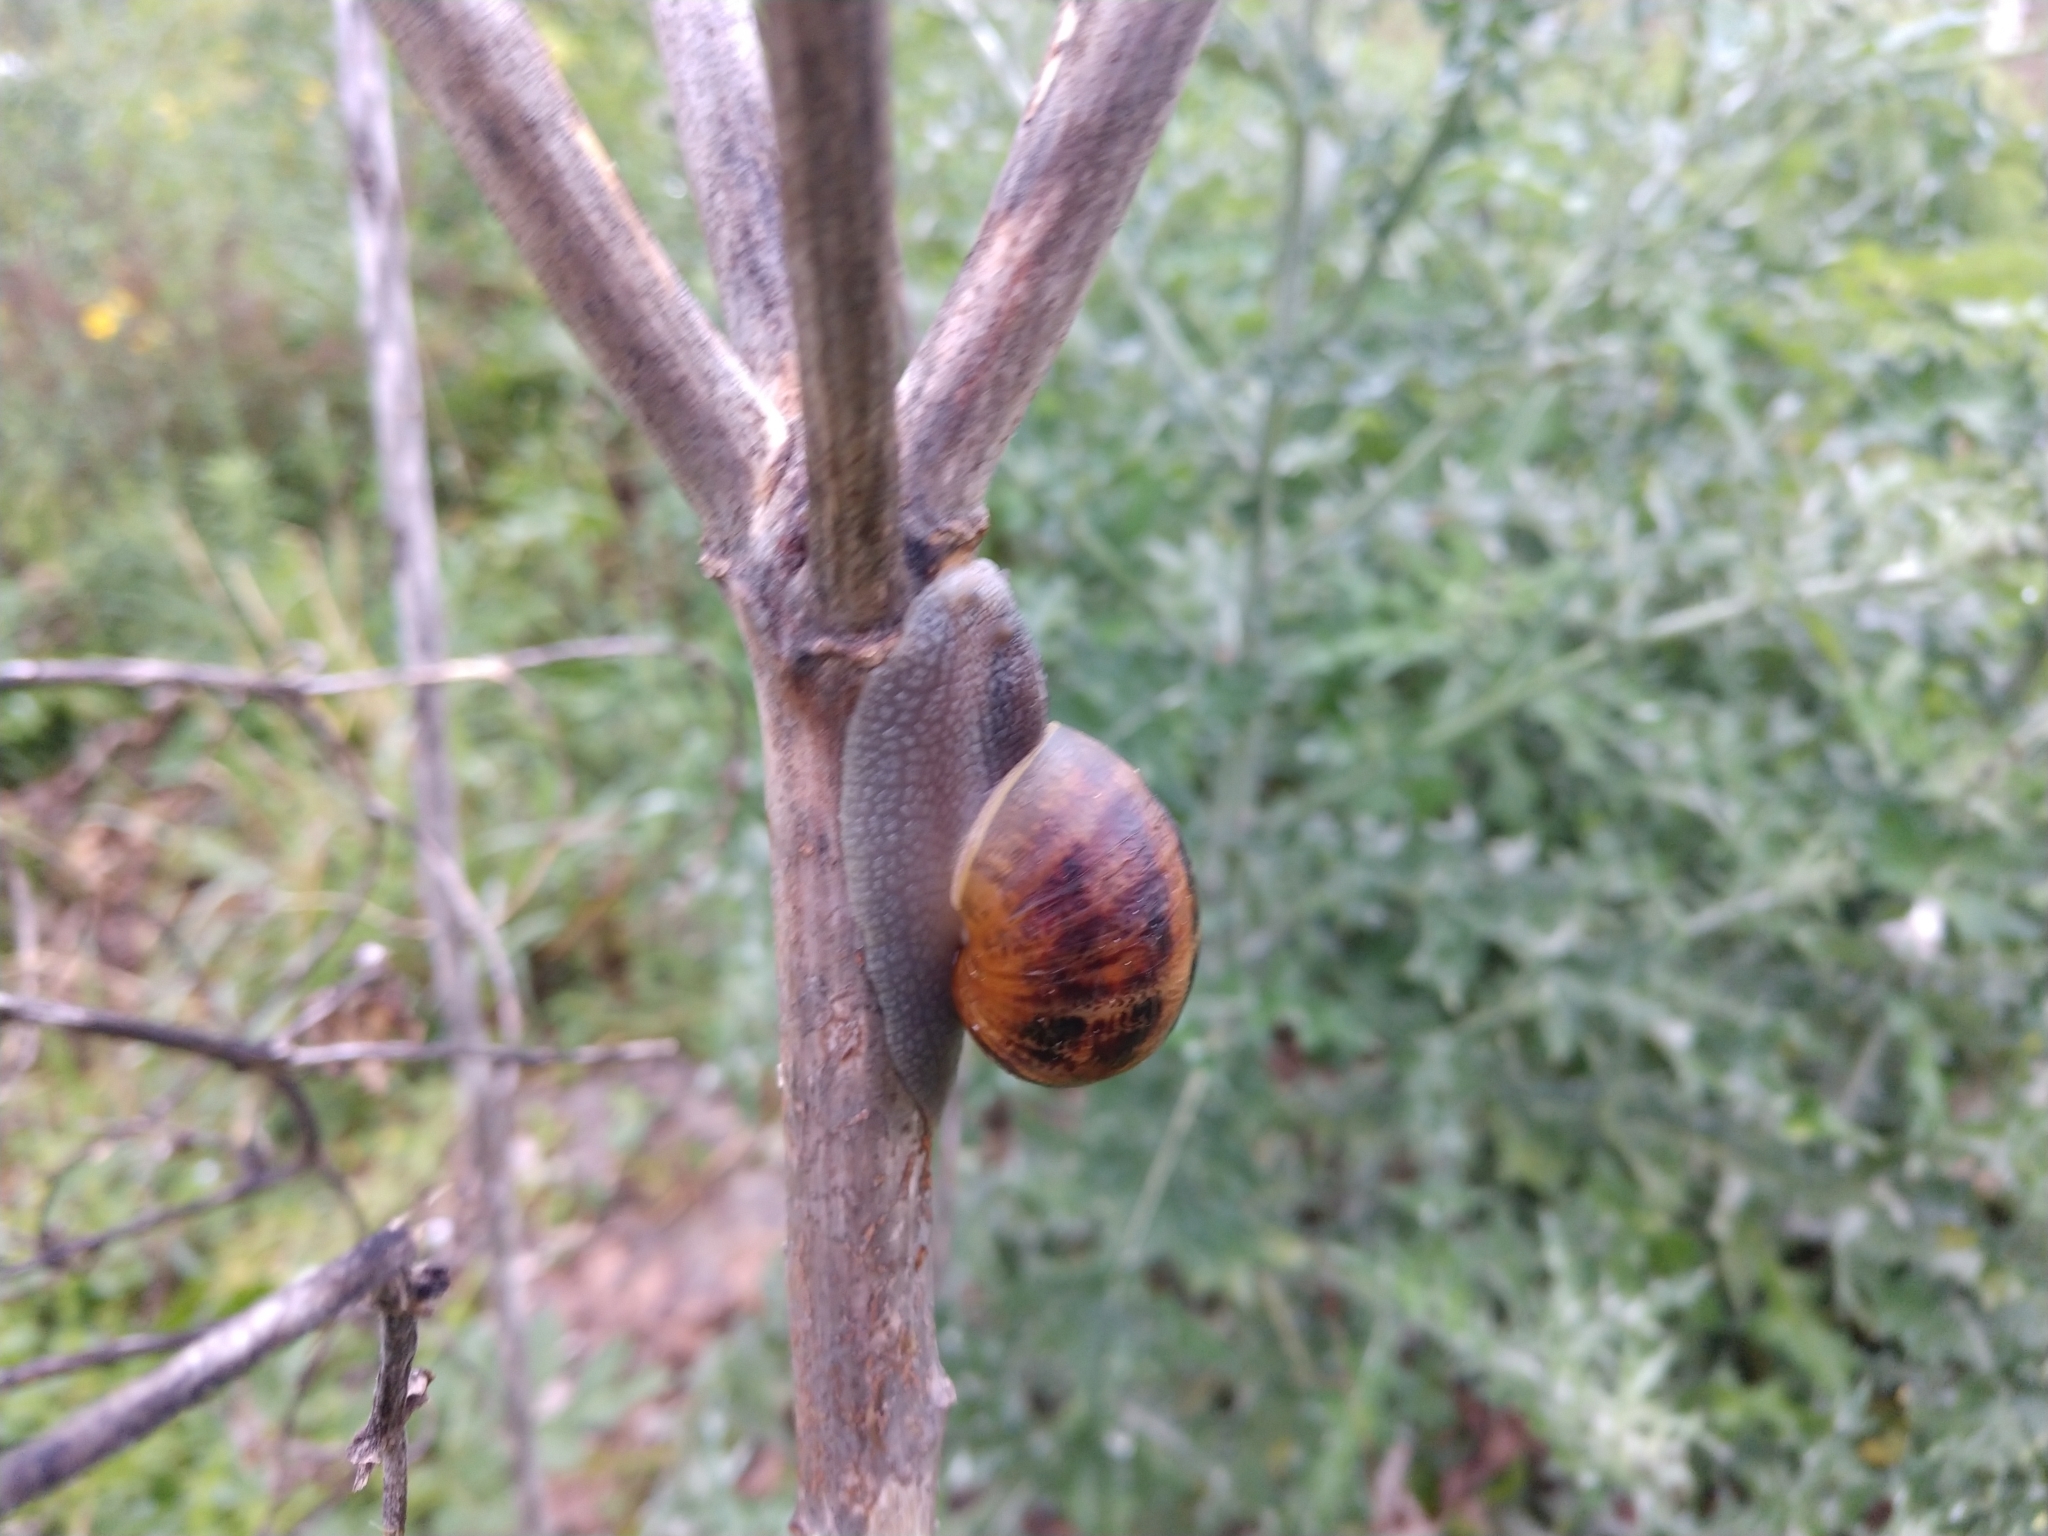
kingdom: Animalia
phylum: Mollusca
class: Gastropoda
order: Stylommatophora
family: Helicidae
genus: Cornu
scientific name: Cornu aspersum
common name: Brown garden snail
